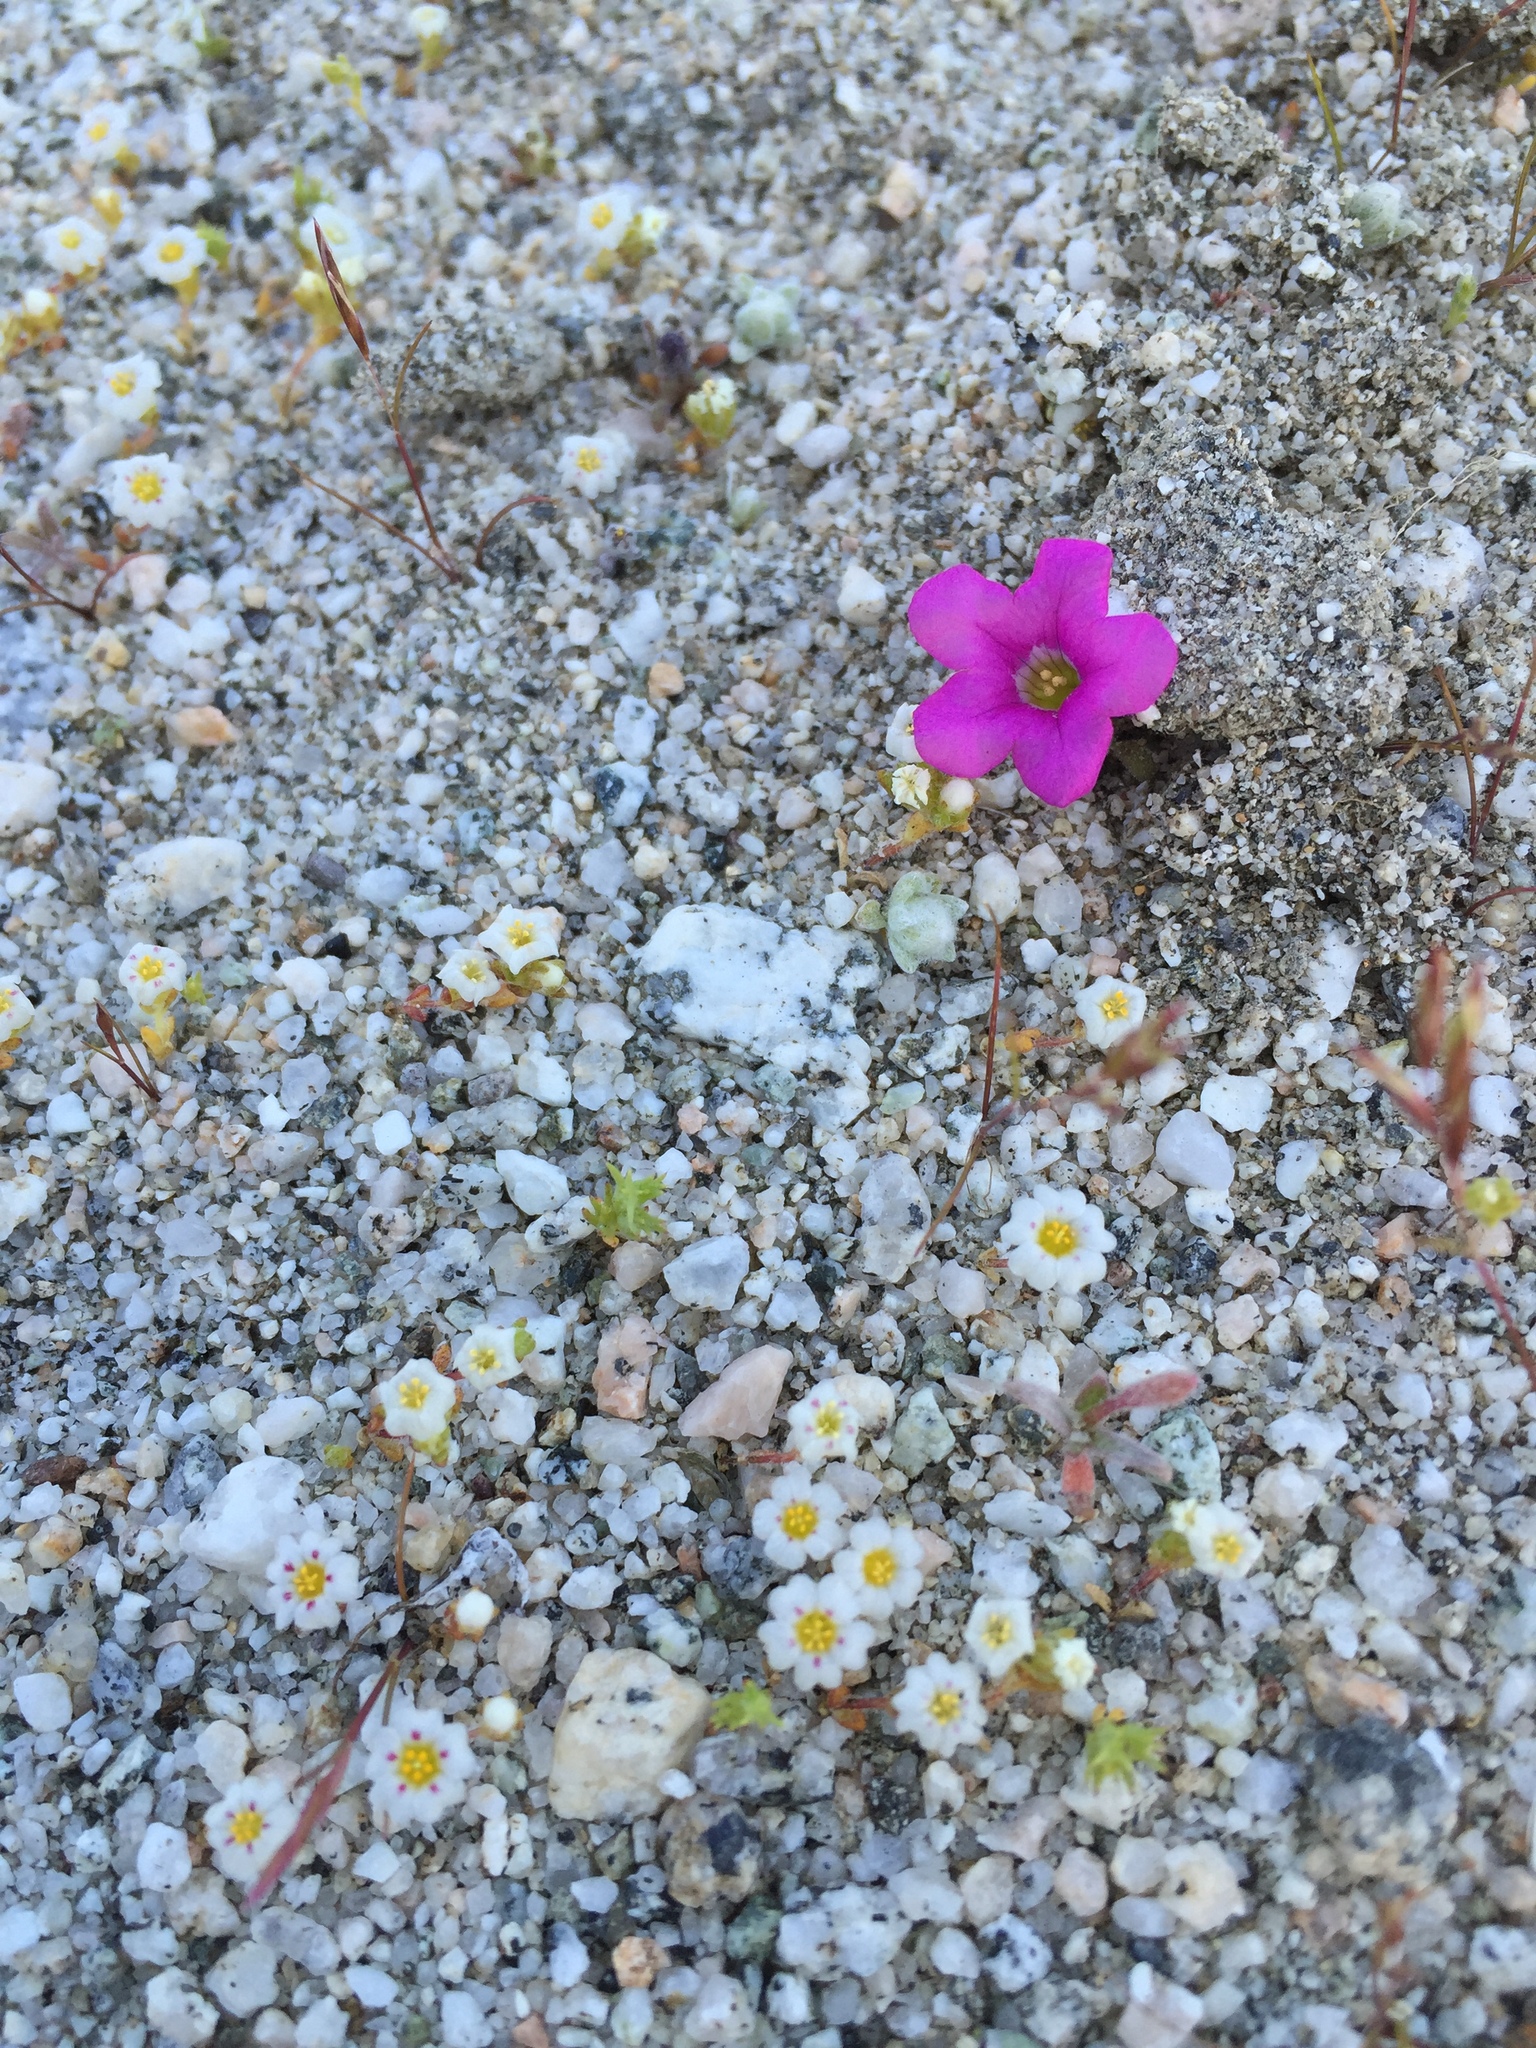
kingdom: Plantae
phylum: Tracheophyta
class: Magnoliopsida
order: Boraginales
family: Namaceae
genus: Nama
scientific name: Nama demissa
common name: Leafy nama
